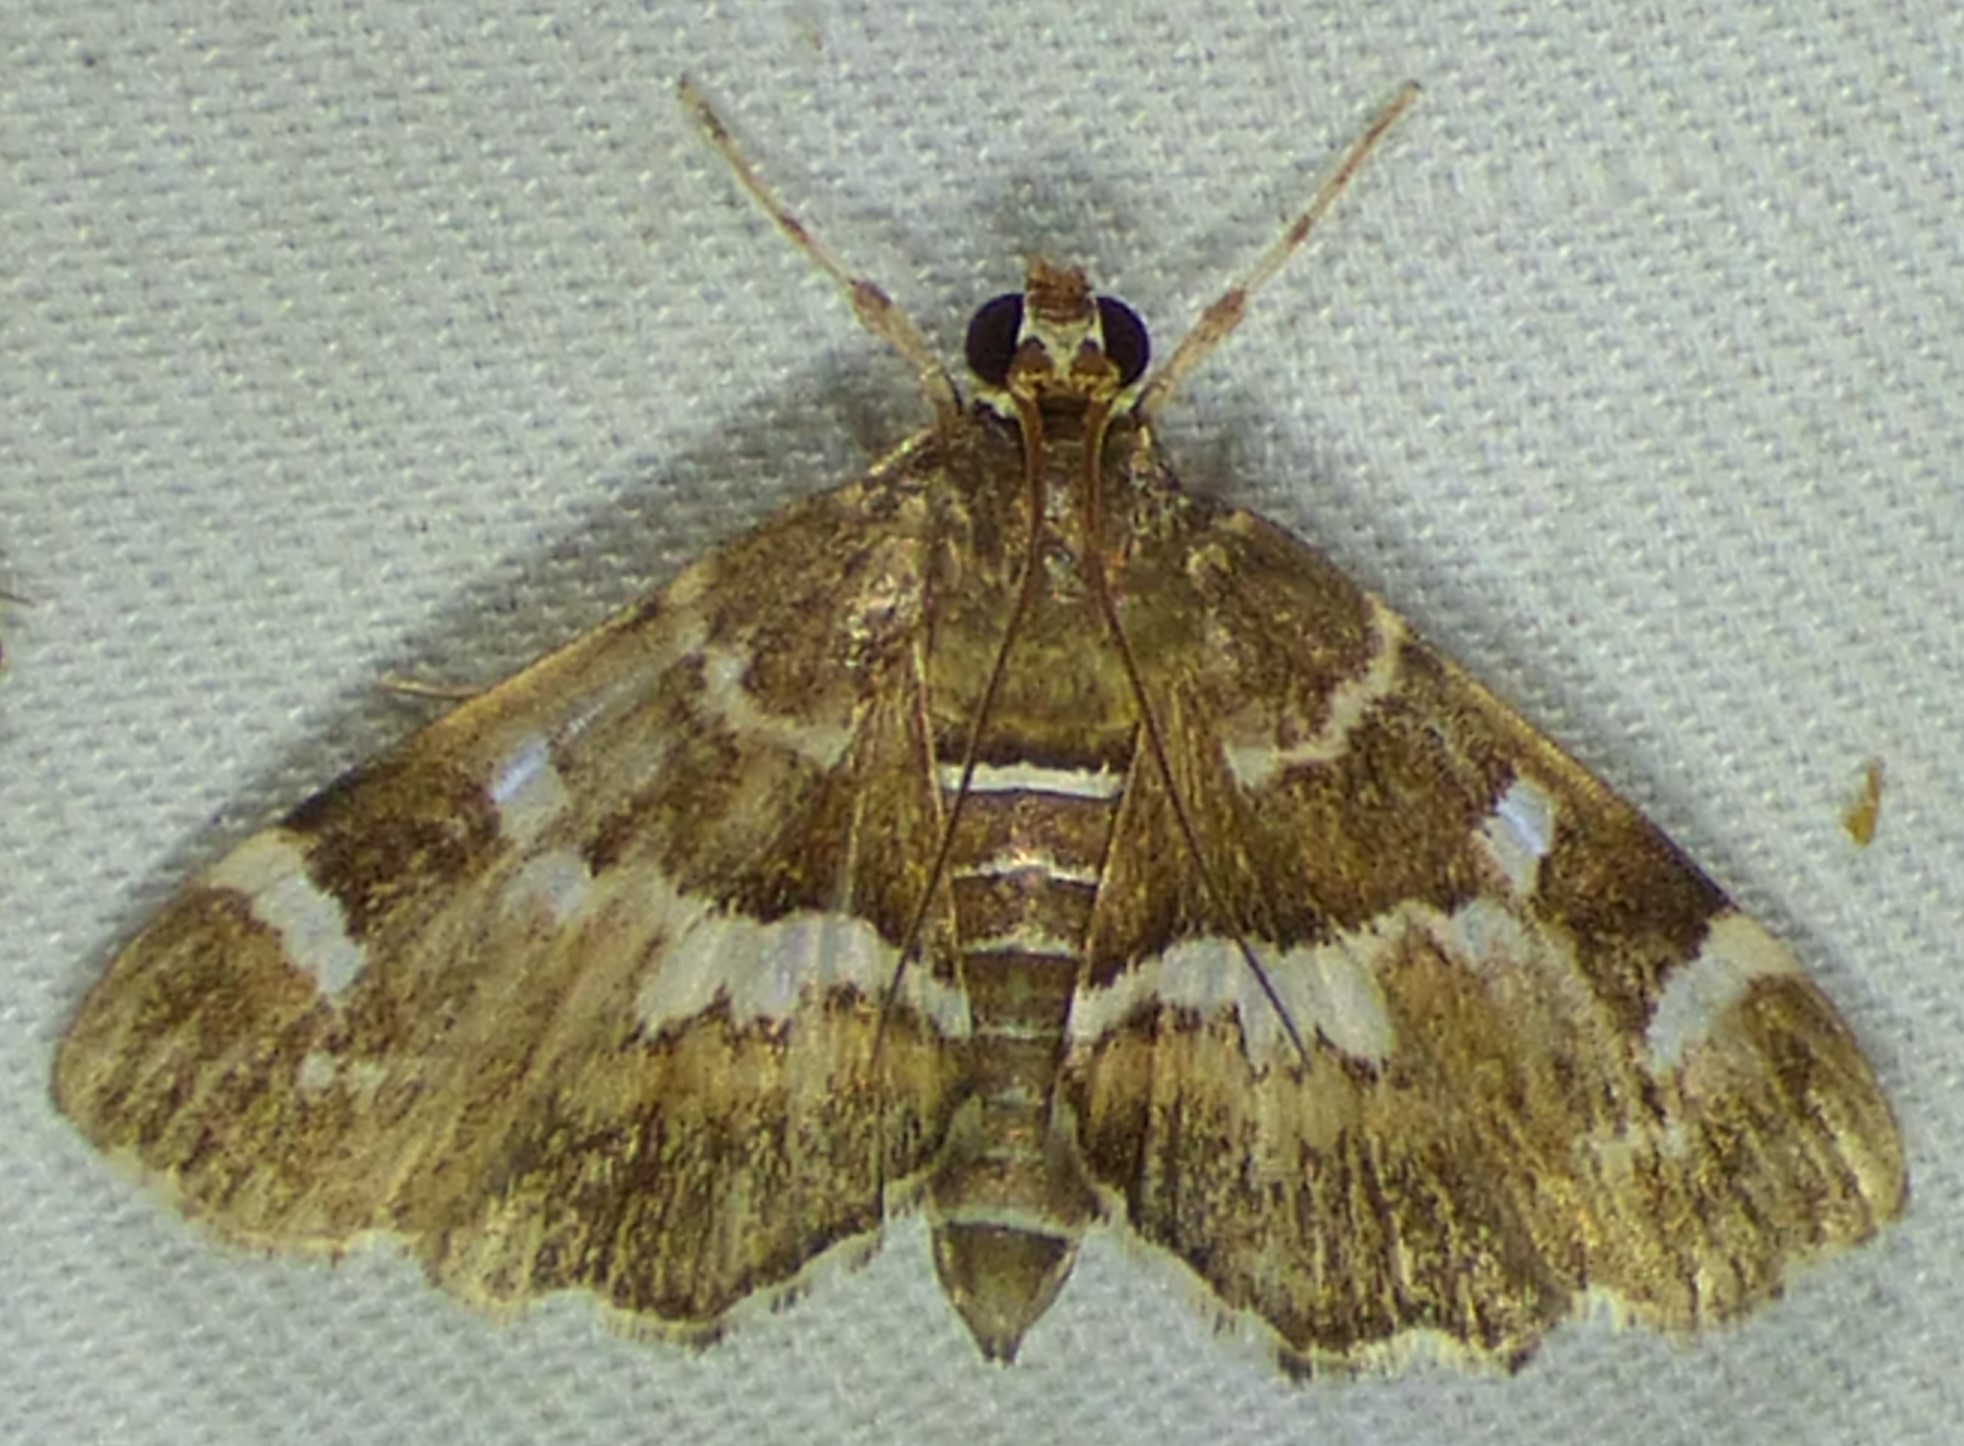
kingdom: Animalia
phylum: Arthropoda
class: Insecta
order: Lepidoptera
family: Crambidae
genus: Hymenia
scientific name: Hymenia perspectalis
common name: Spotted beet webworm
